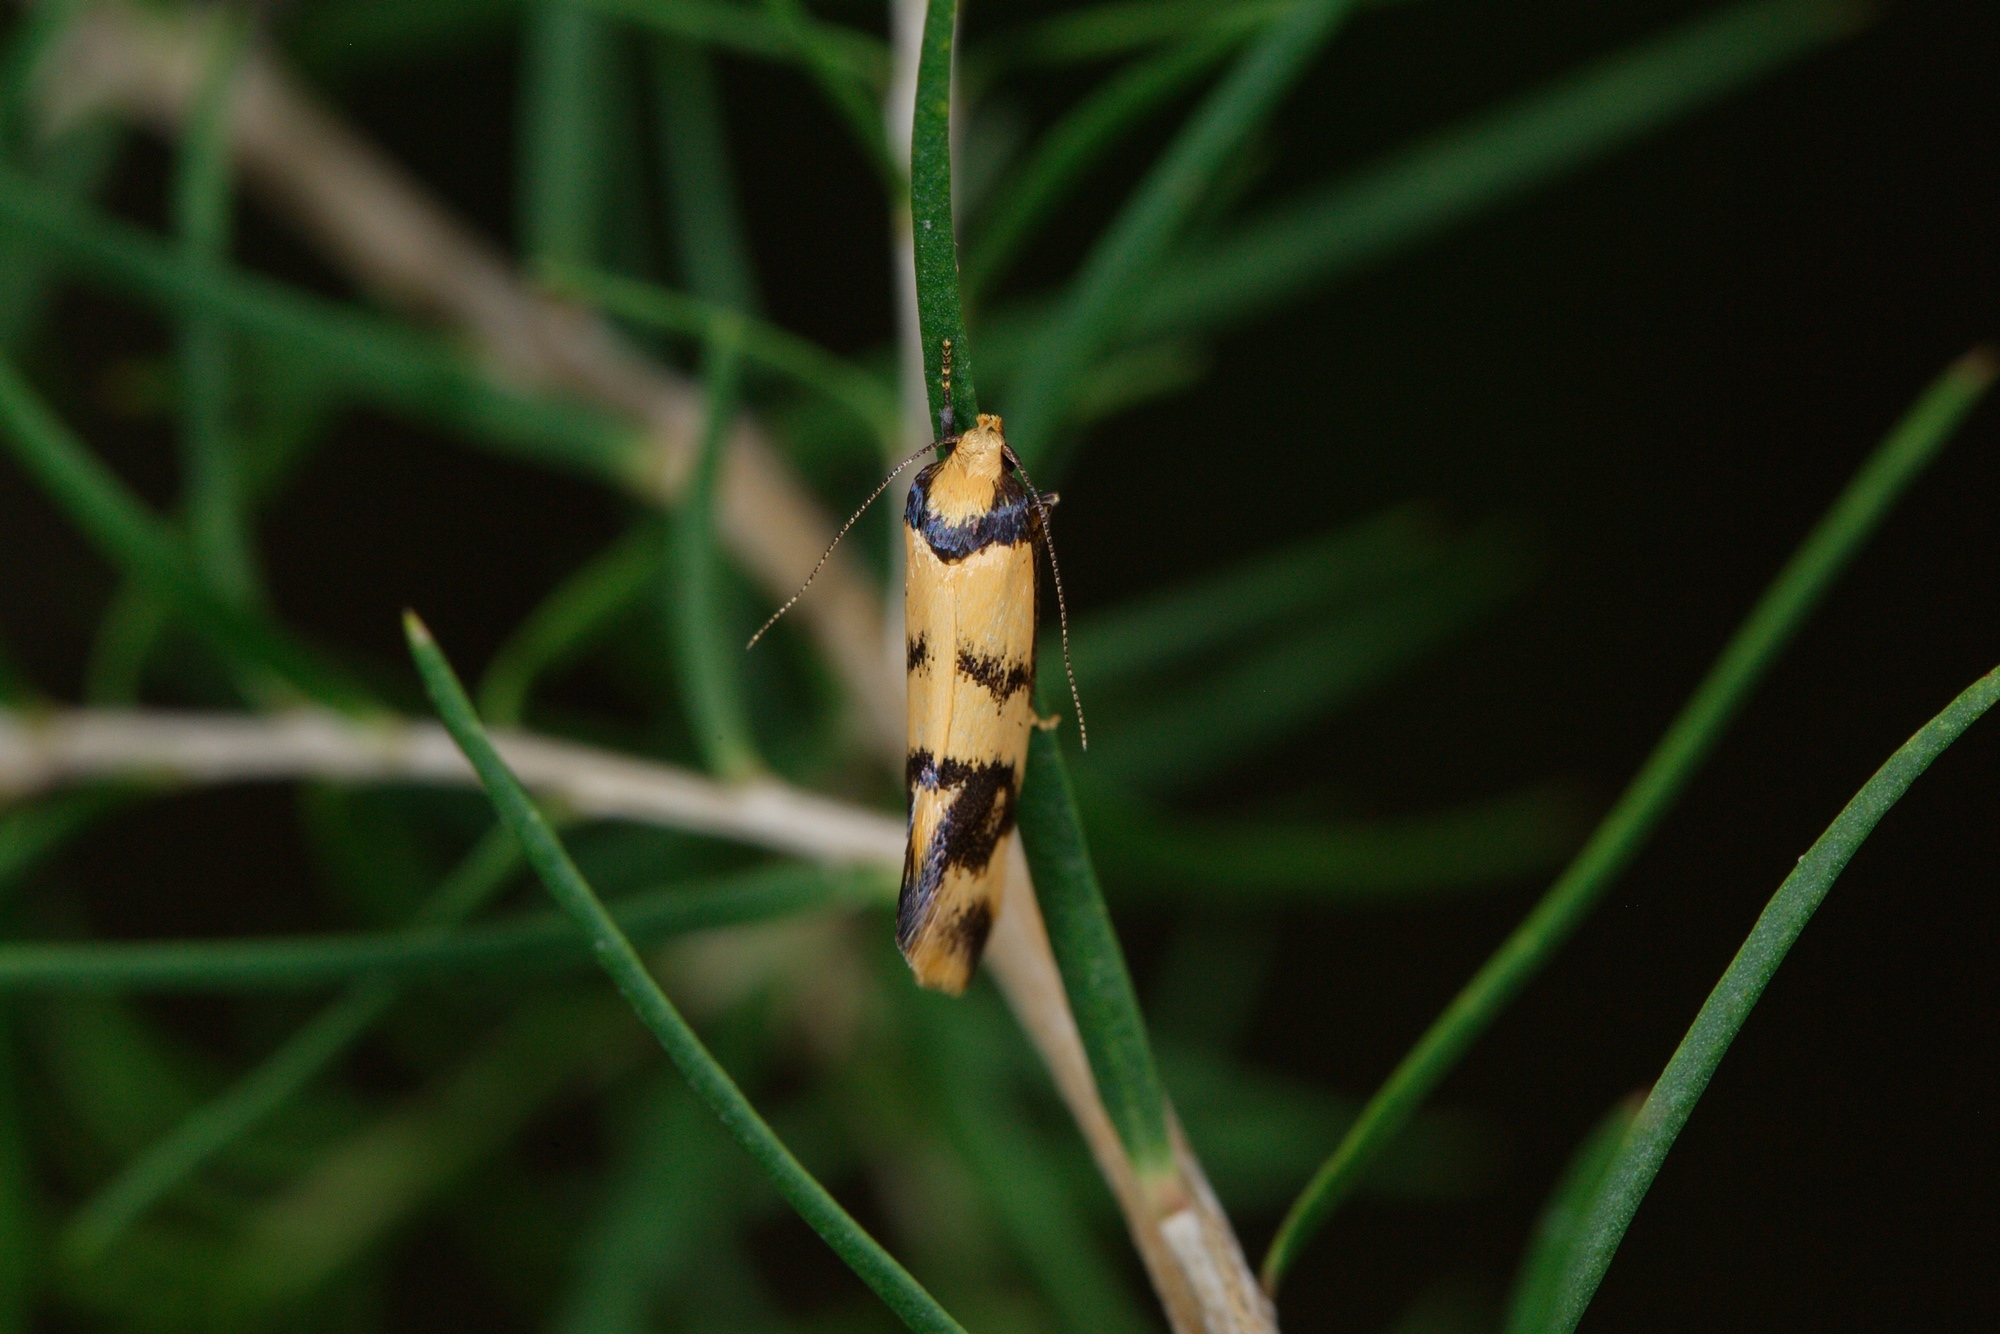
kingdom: Animalia
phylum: Arthropoda
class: Insecta
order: Lepidoptera
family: Oecophoridae
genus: Olbonoma
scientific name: Olbonoma triptycha
